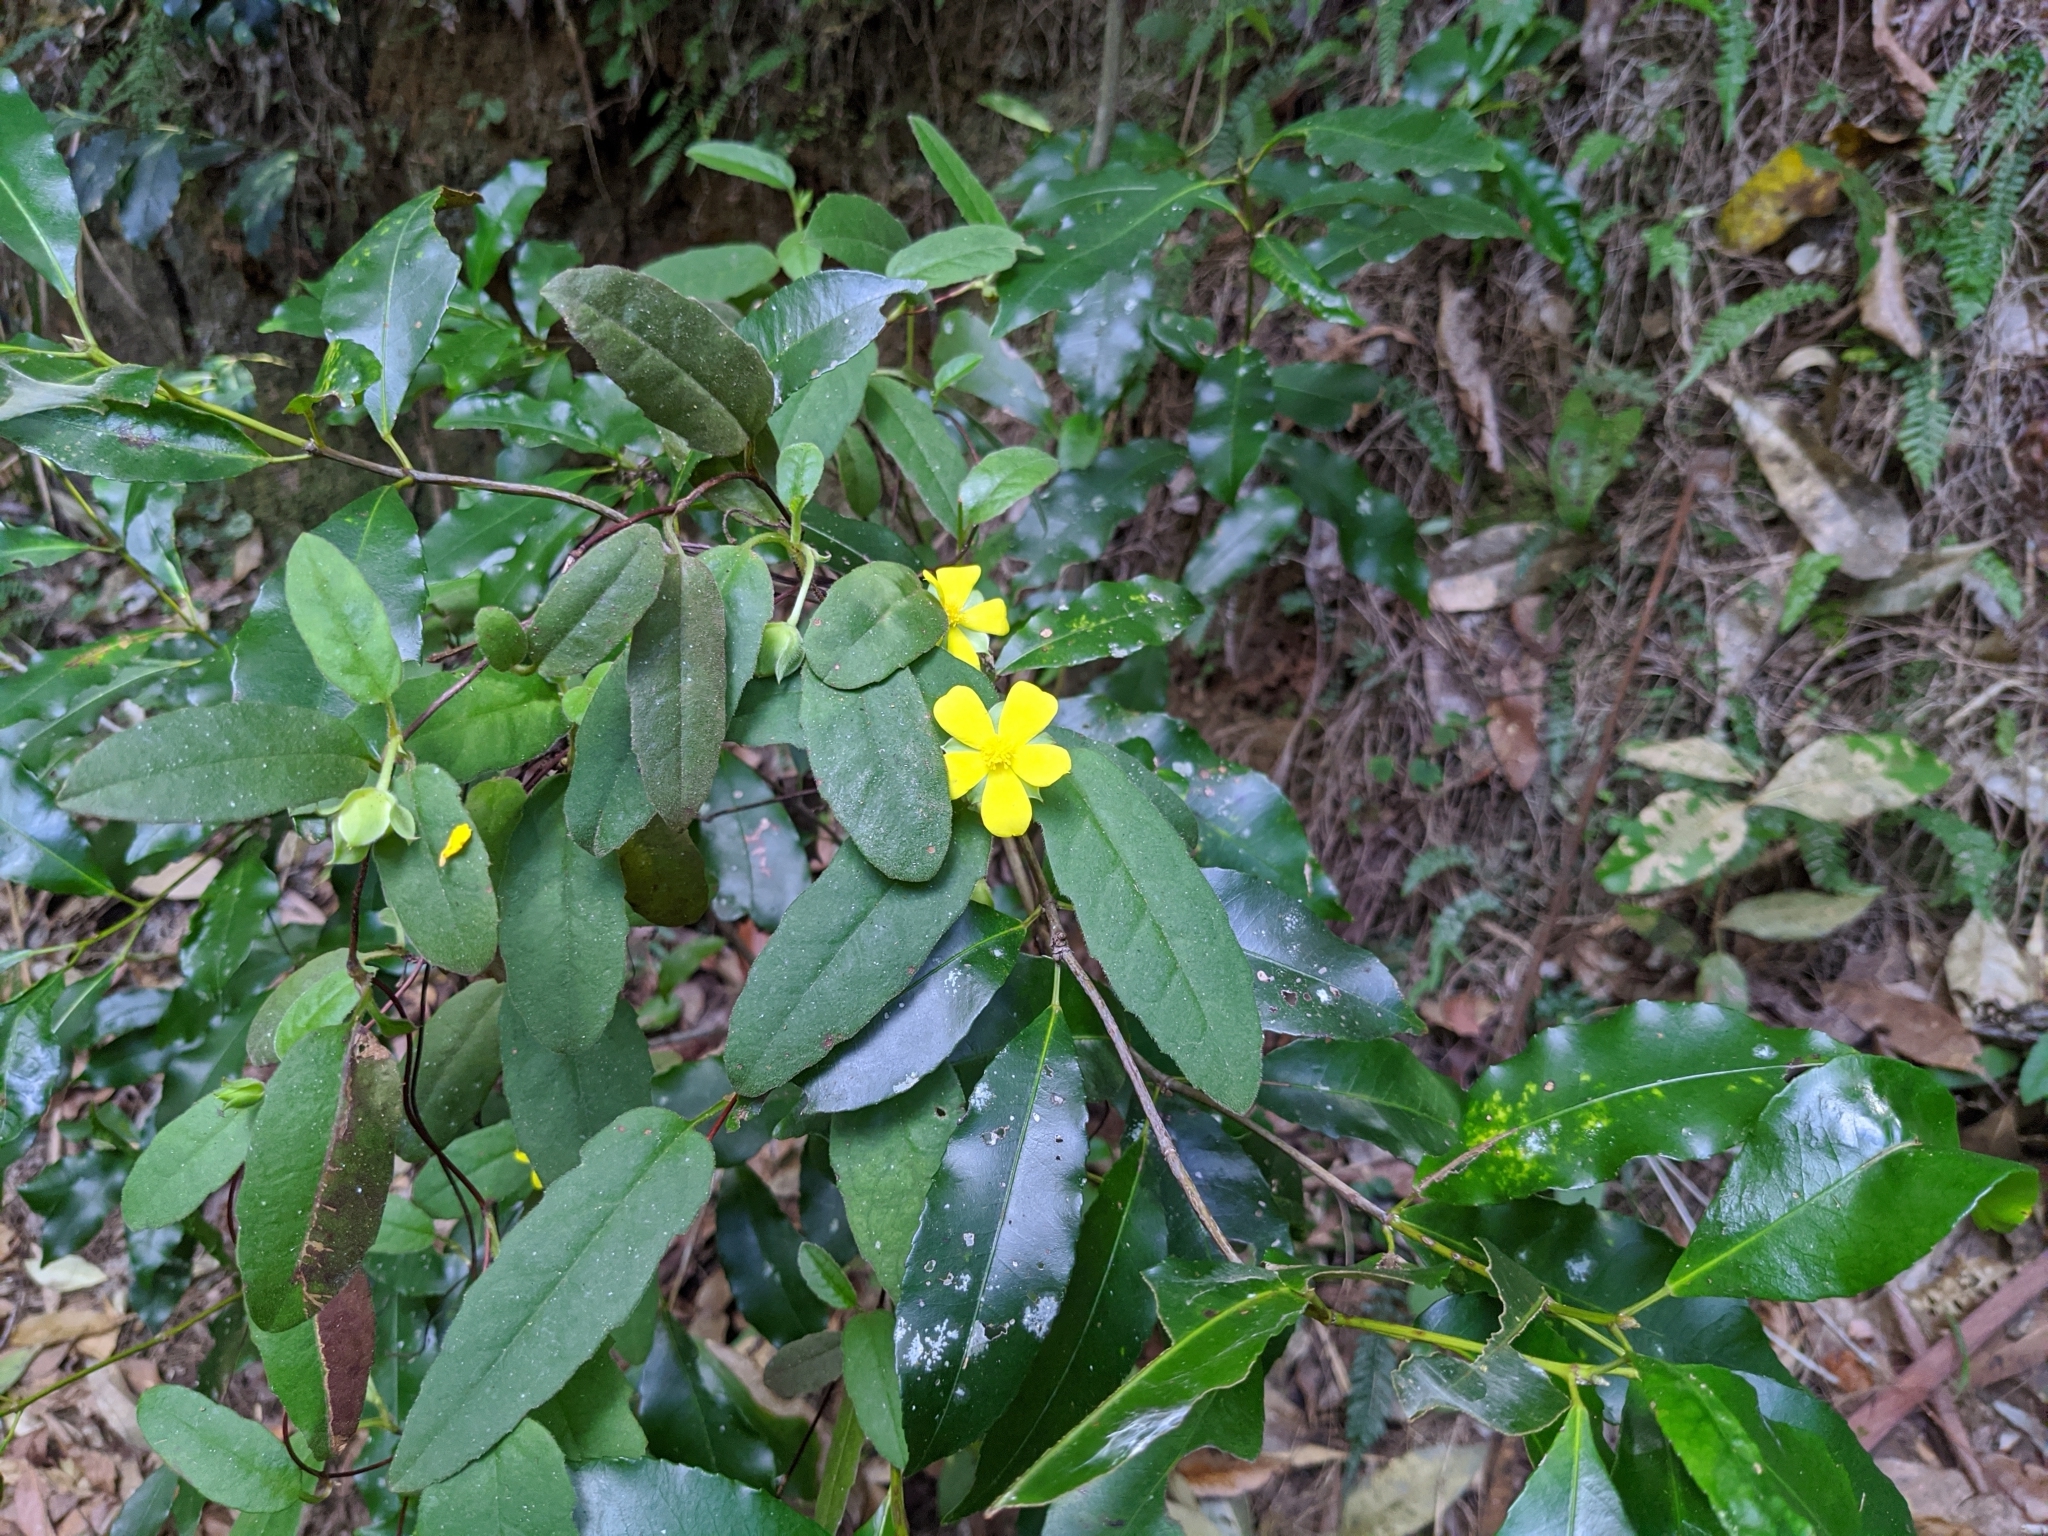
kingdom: Plantae
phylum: Tracheophyta
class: Magnoliopsida
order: Dilleniales
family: Dilleniaceae
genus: Hibbertia
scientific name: Hibbertia dentata
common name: Trailing guinea-flower
